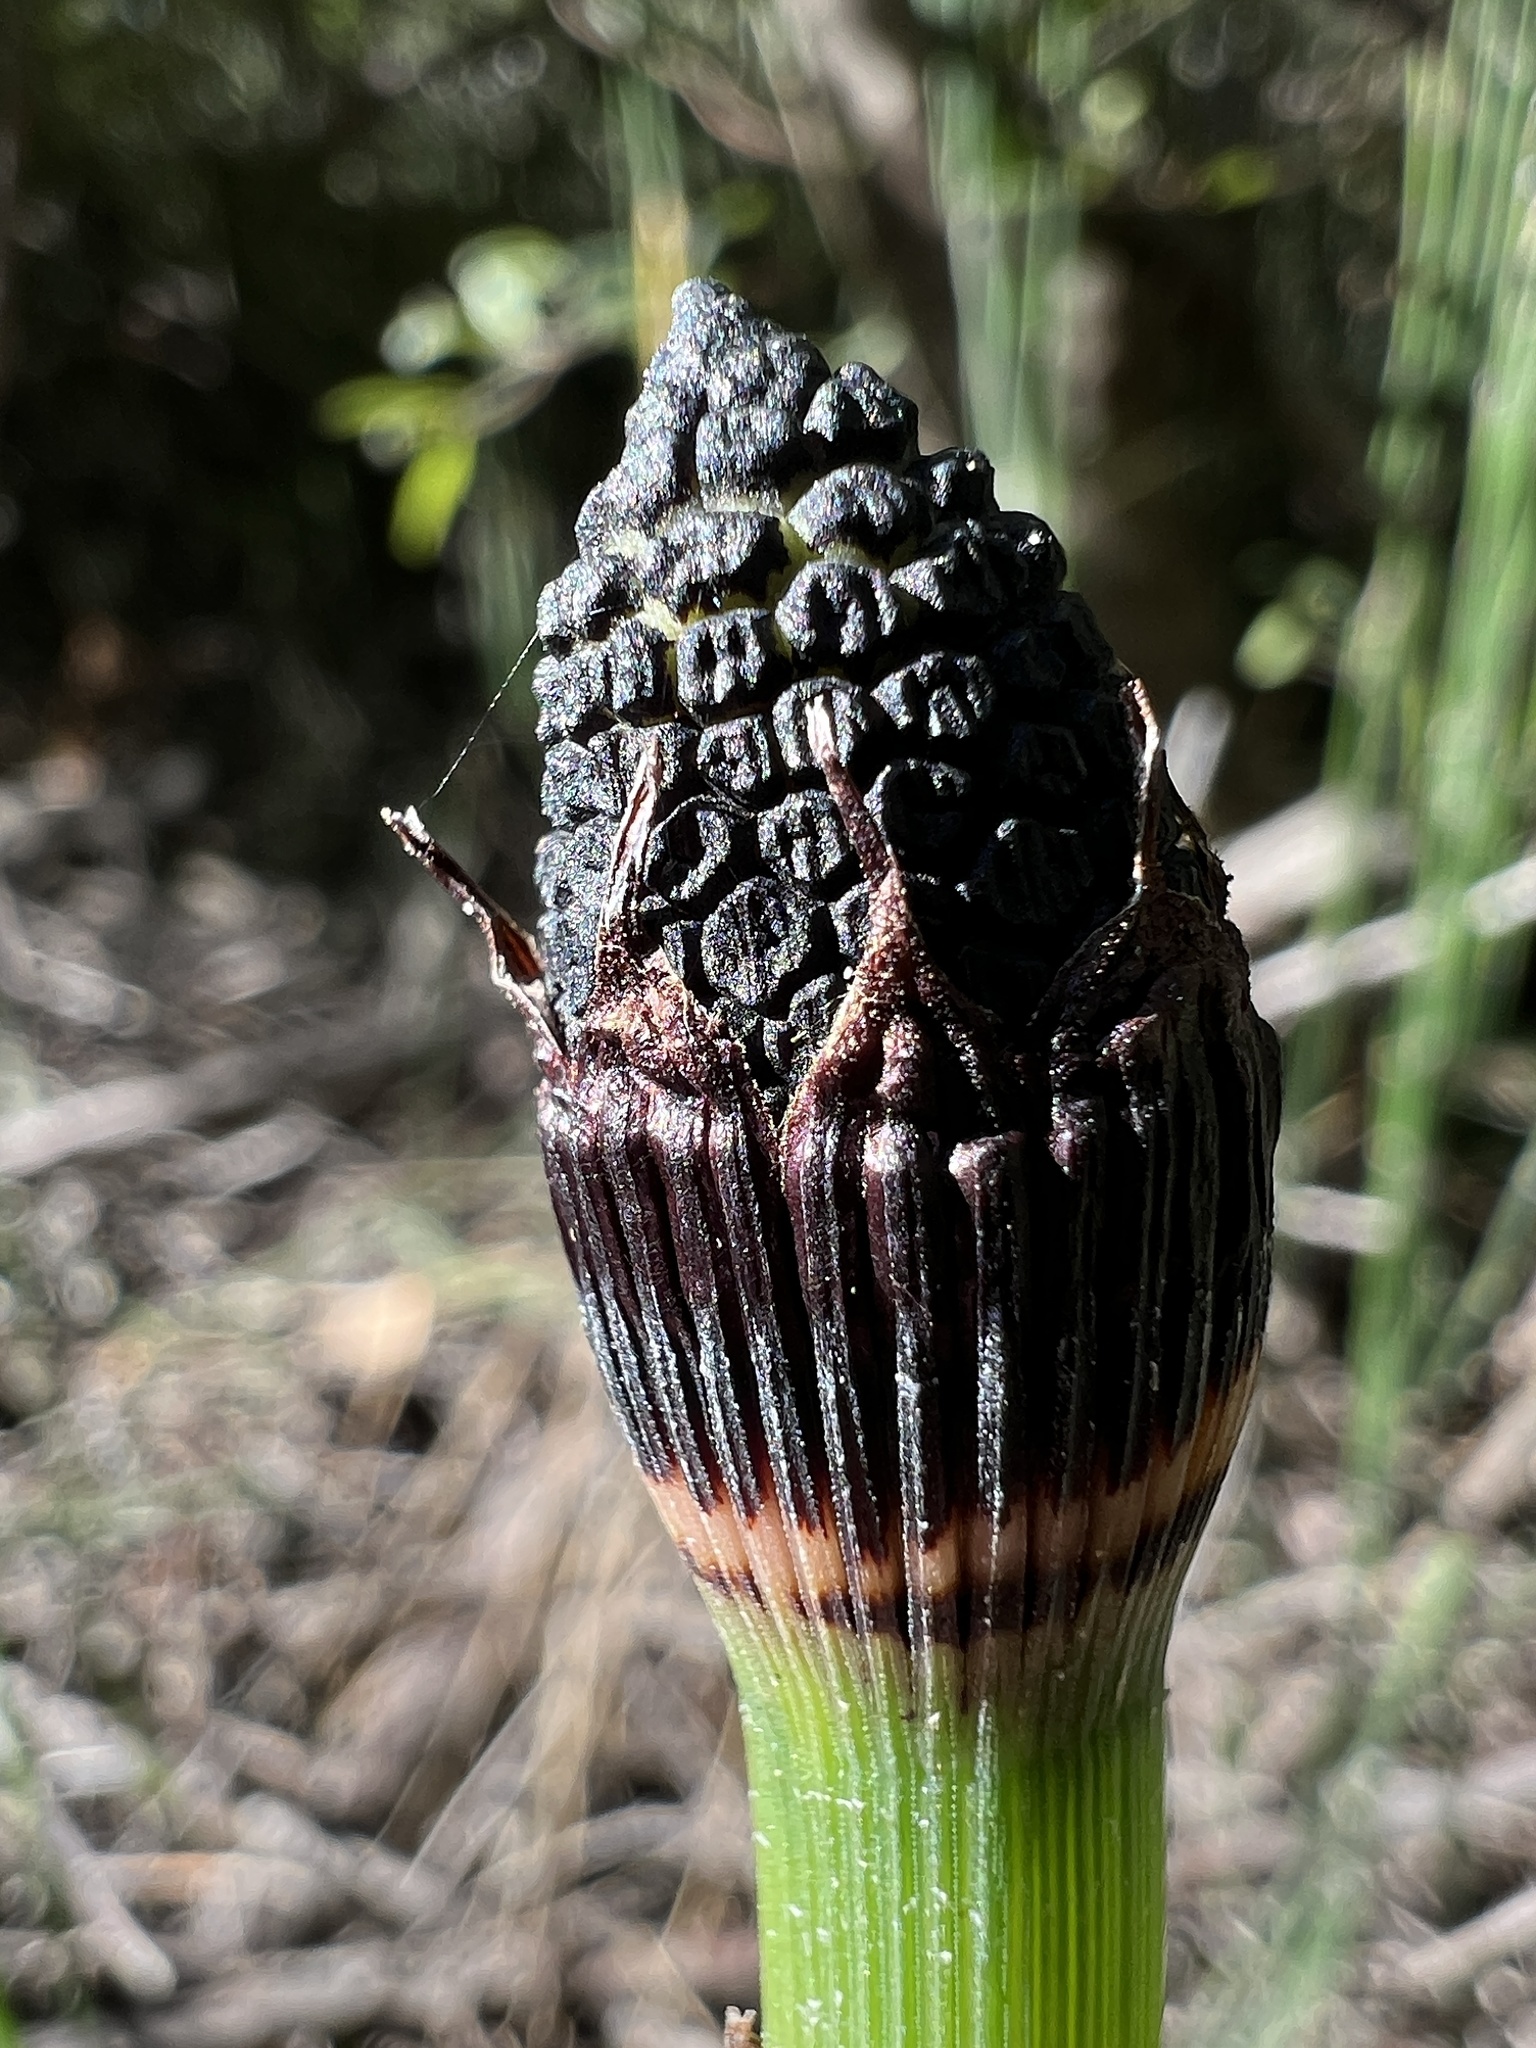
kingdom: Plantae
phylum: Tracheophyta
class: Polypodiopsida
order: Equisetales
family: Equisetaceae
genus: Equisetum
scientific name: Equisetum hyemale
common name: Rough horsetail
